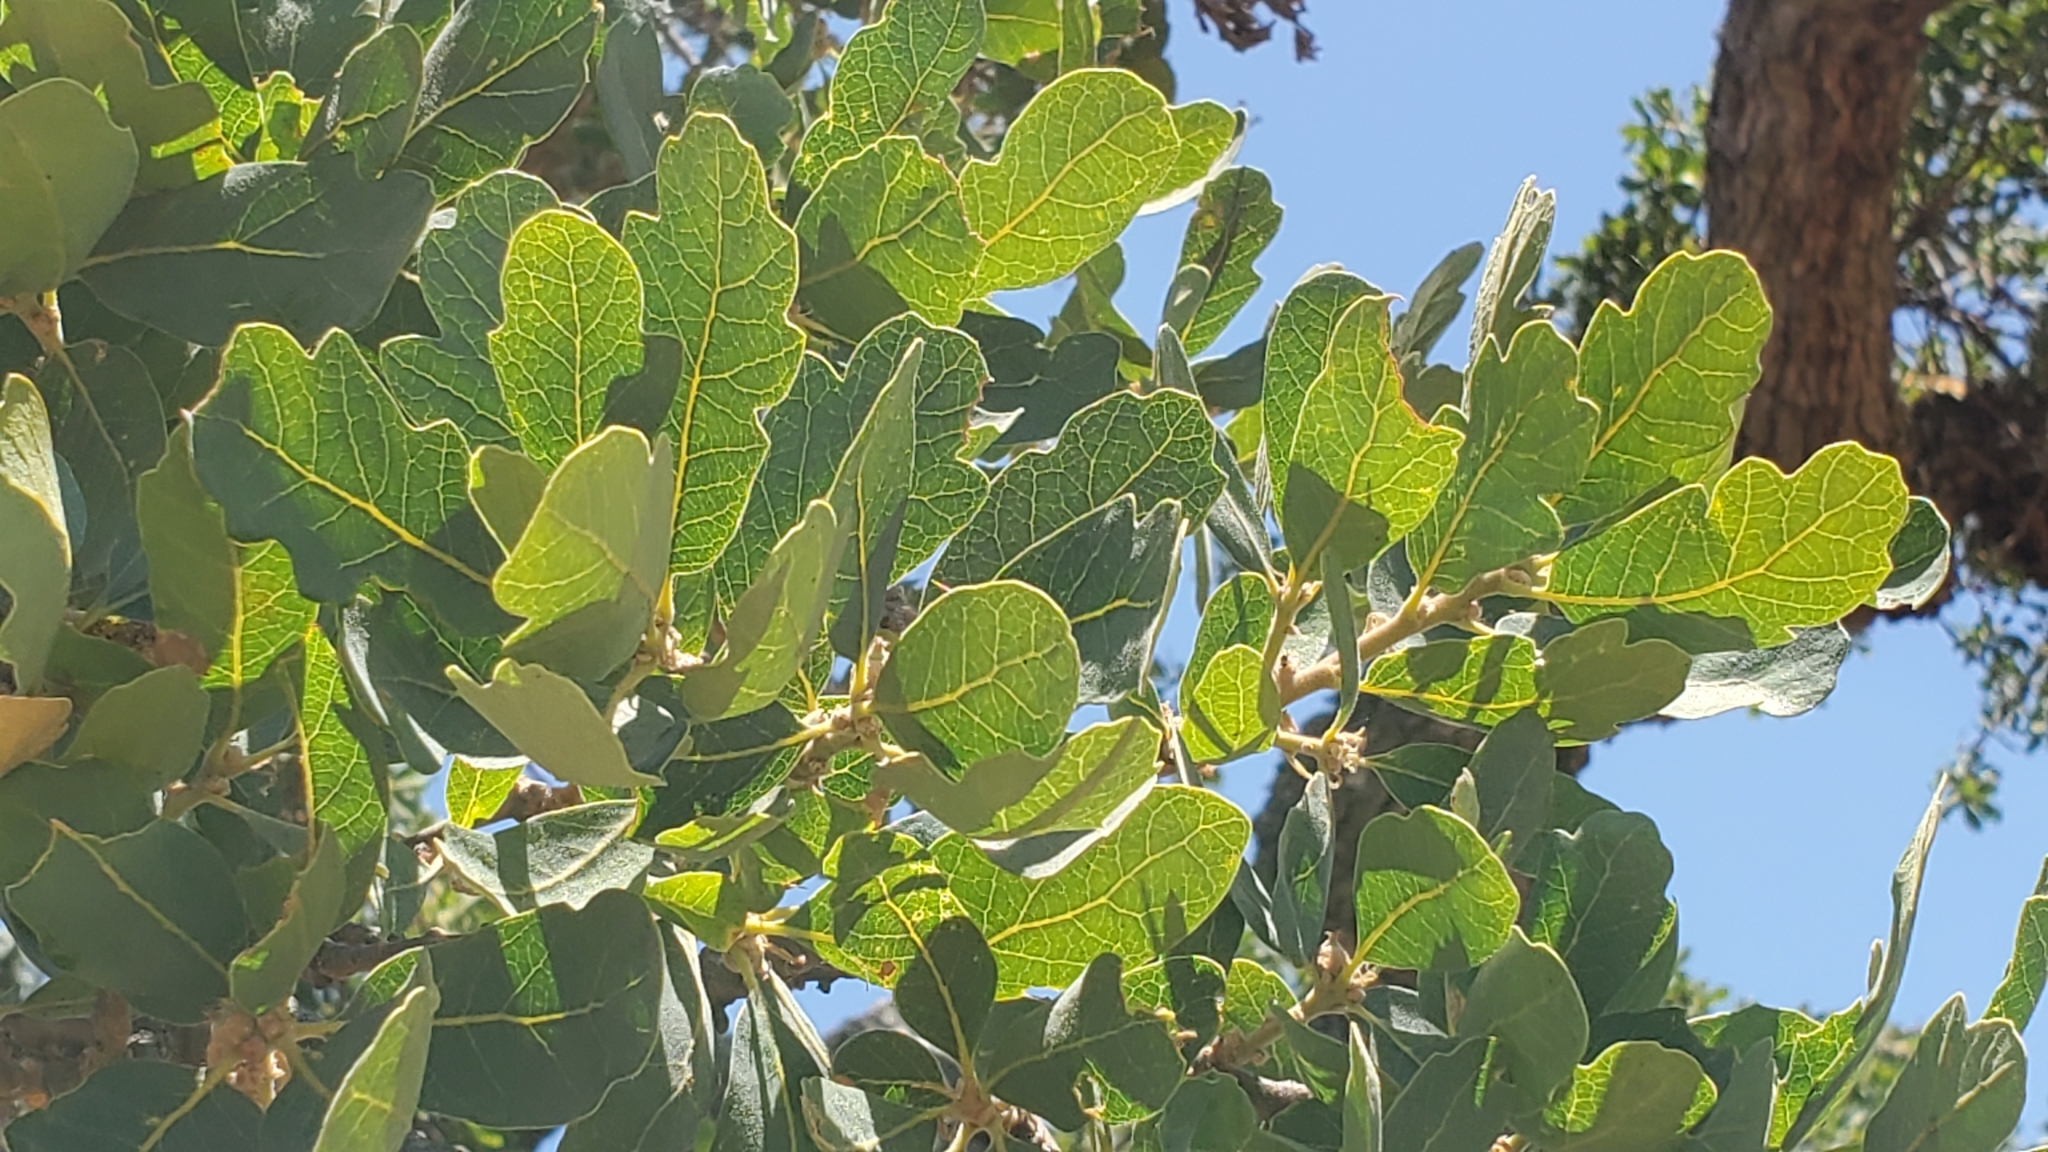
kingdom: Plantae
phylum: Tracheophyta
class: Magnoliopsida
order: Fagales
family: Fagaceae
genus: Quercus
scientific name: Quercus douglasii
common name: Blue oak
